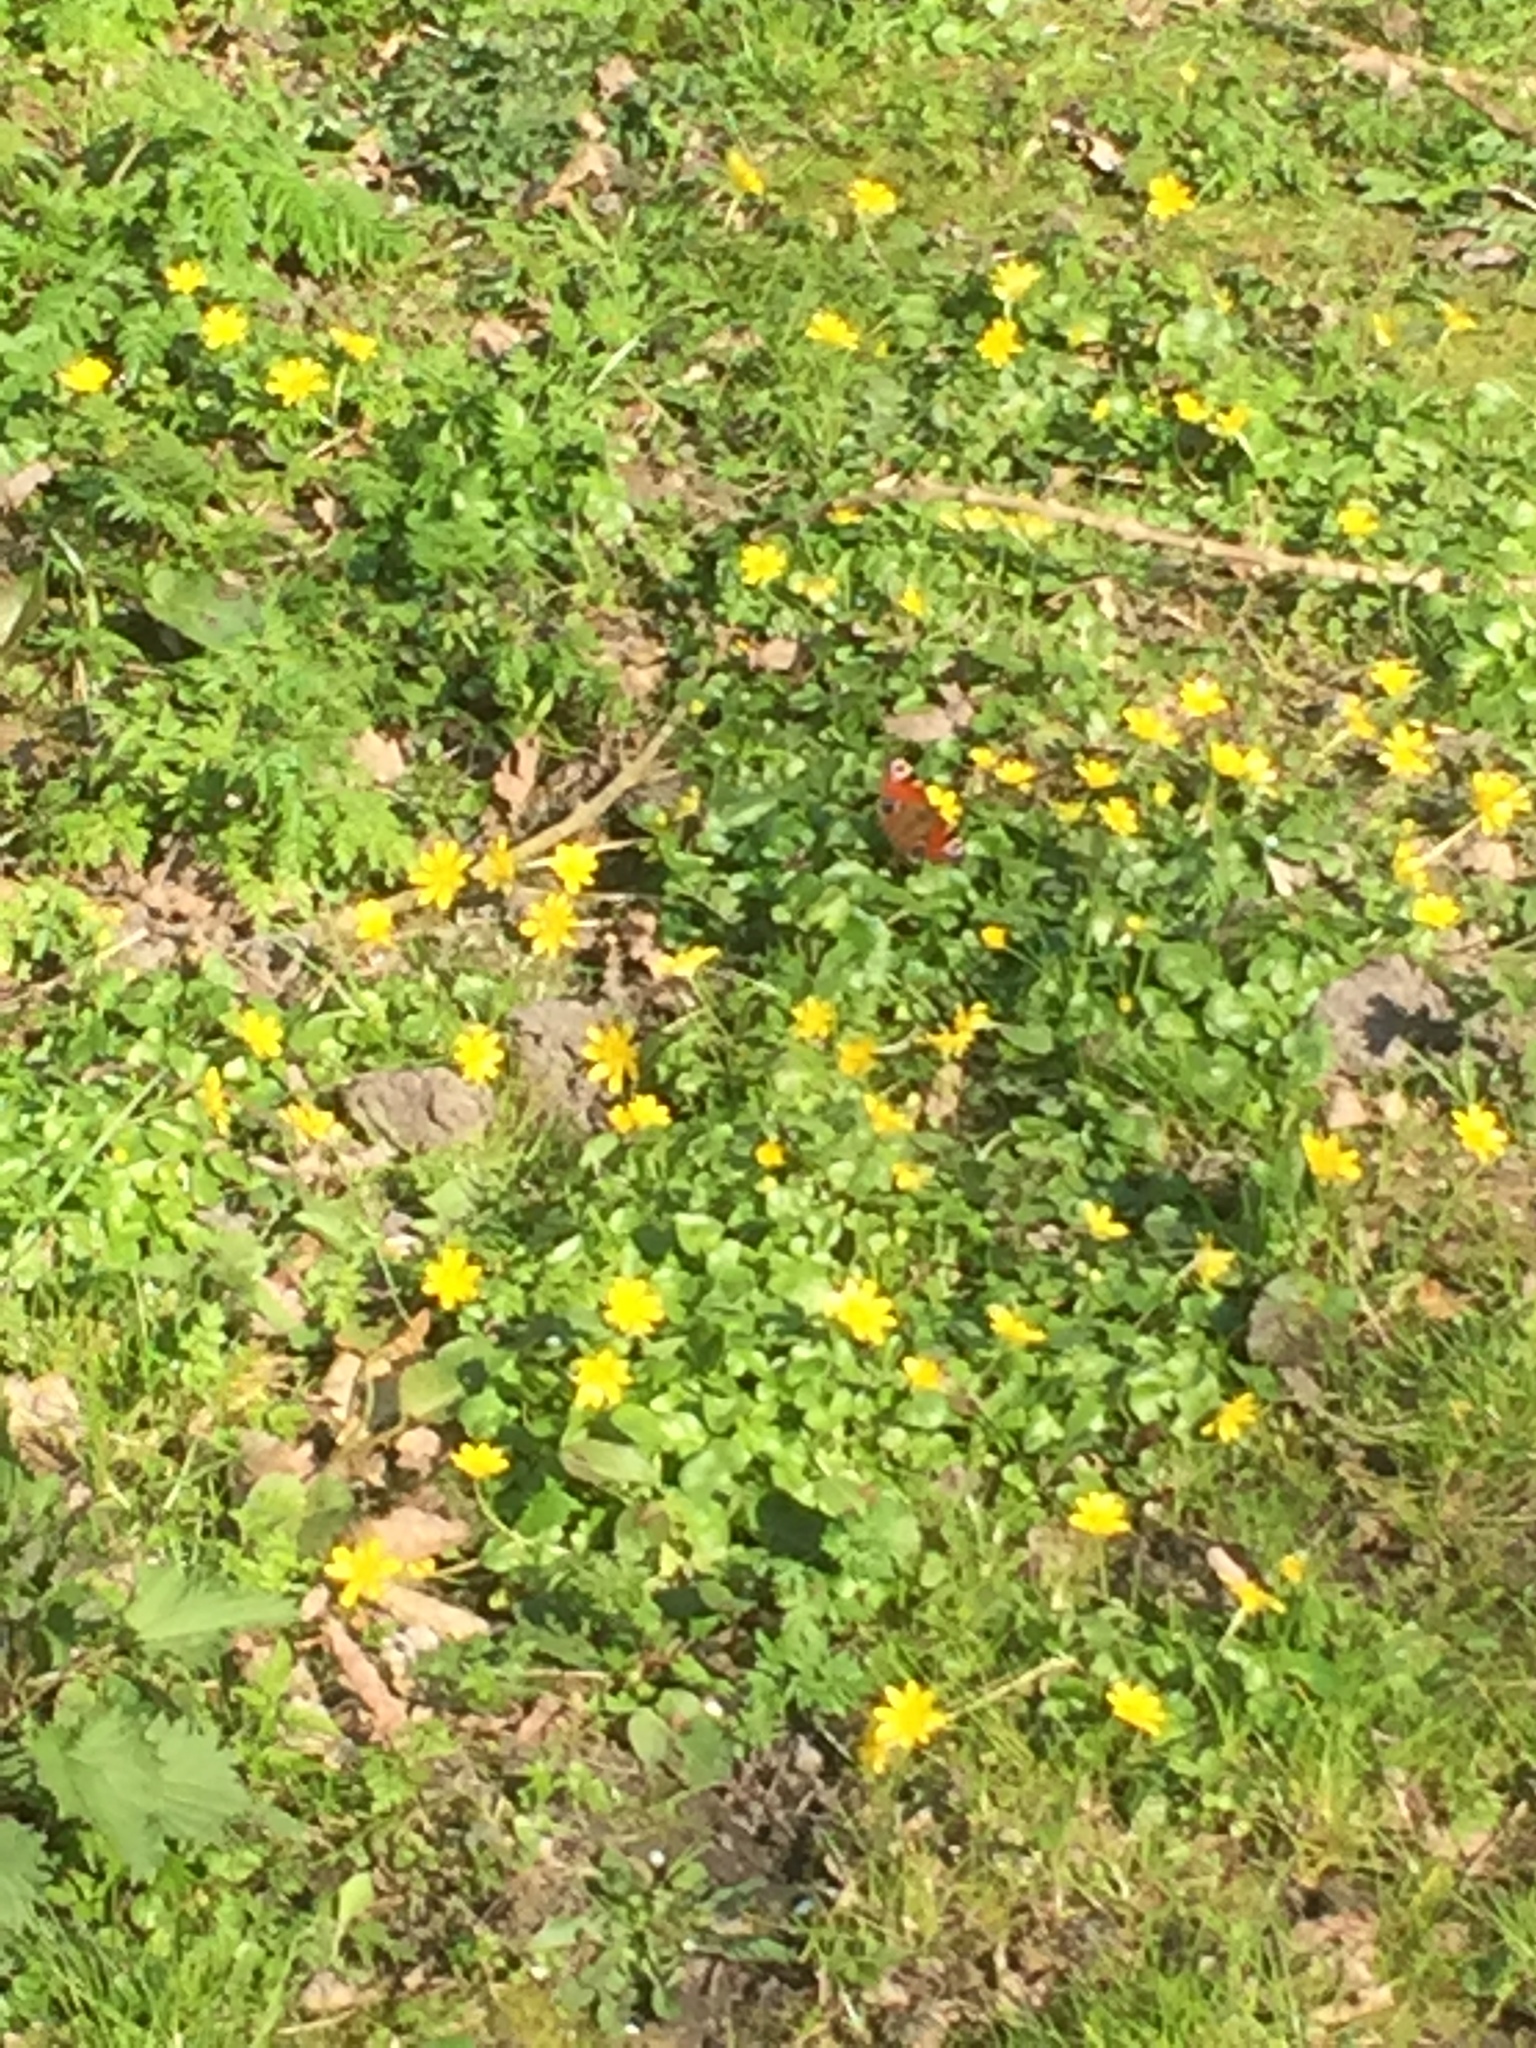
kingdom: Animalia
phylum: Arthropoda
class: Insecta
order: Lepidoptera
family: Nymphalidae
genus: Aglais
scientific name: Aglais io
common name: Peacock
